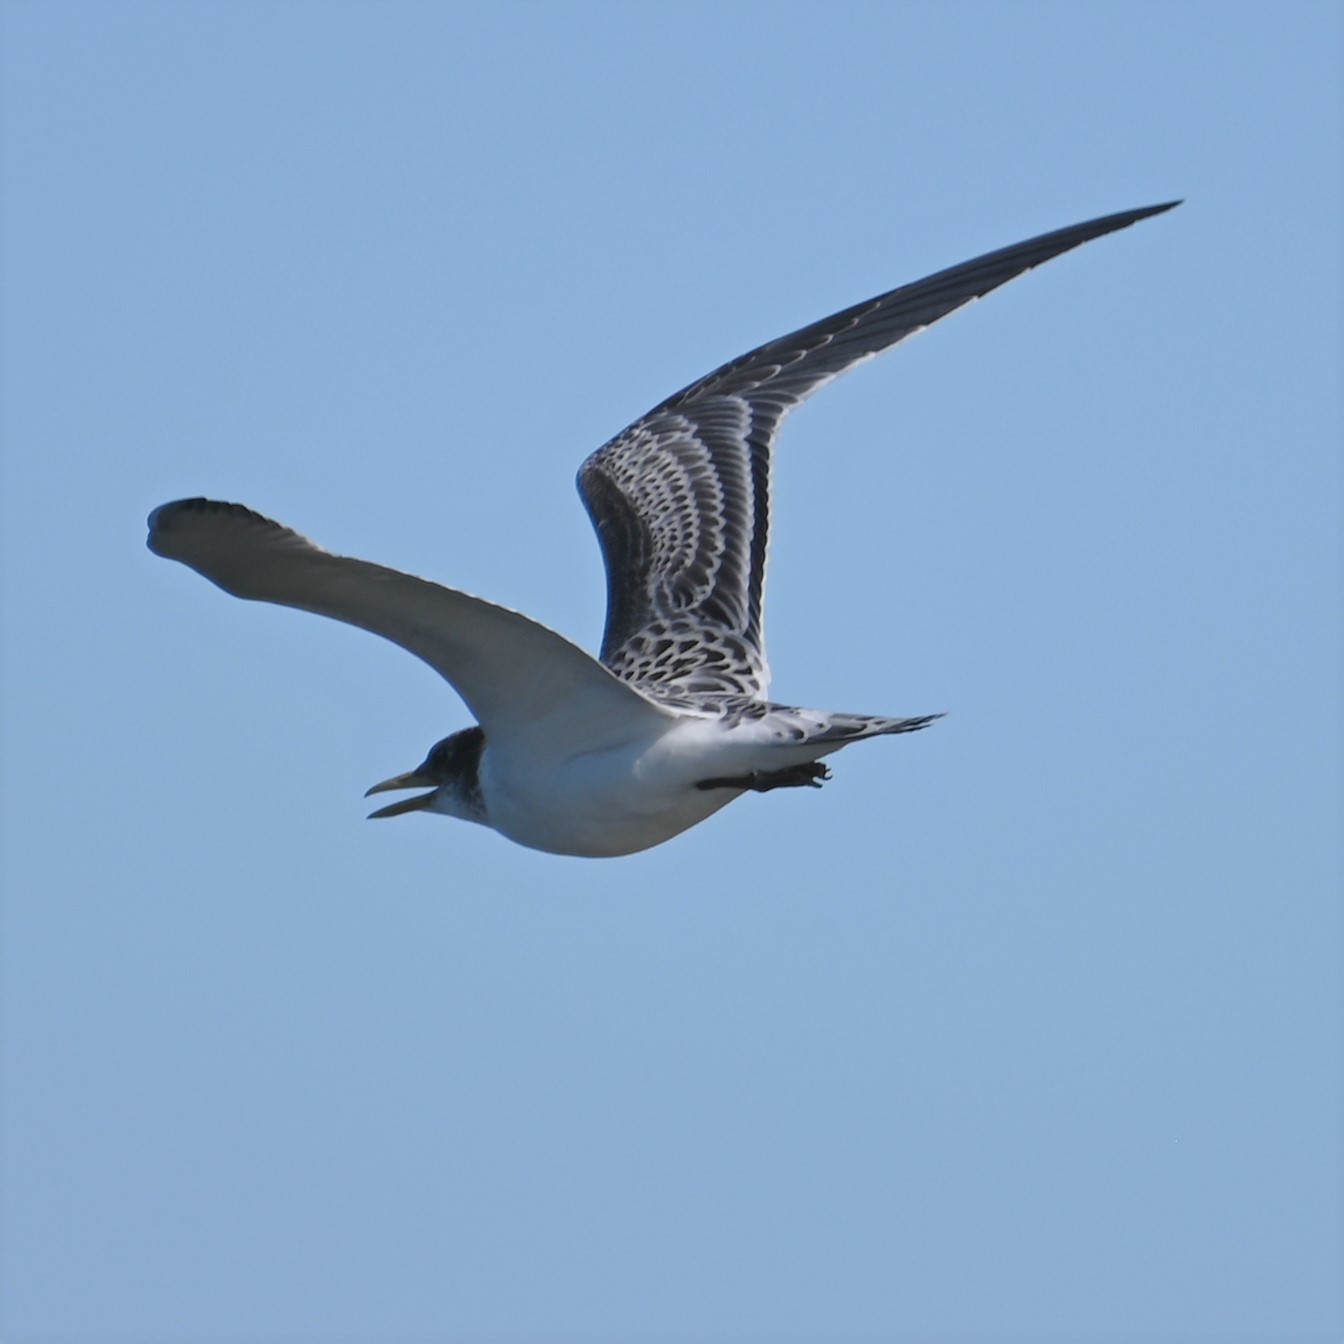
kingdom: Animalia
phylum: Chordata
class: Aves
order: Charadriiformes
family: Laridae
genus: Thalasseus
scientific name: Thalasseus bergii
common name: Greater crested tern
